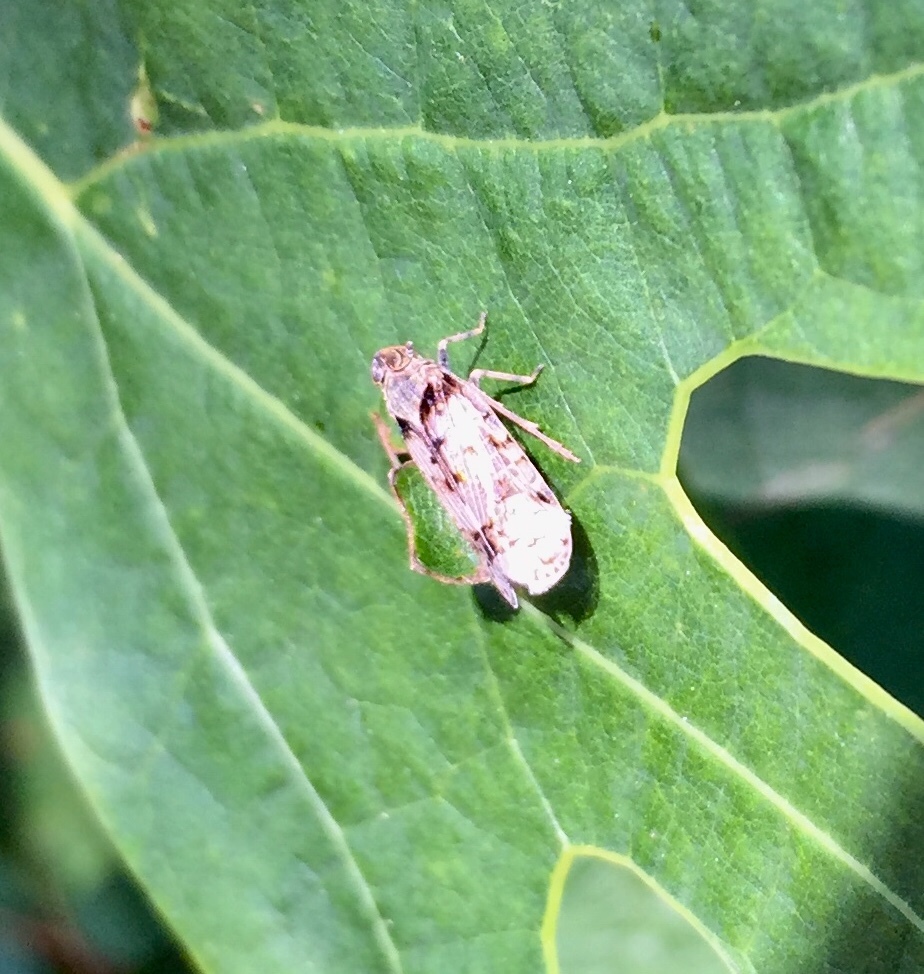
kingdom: Animalia
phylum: Arthropoda
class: Insecta
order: Hemiptera
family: Cixiidae
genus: Melanoliarus
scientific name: Melanoliarus placitus
